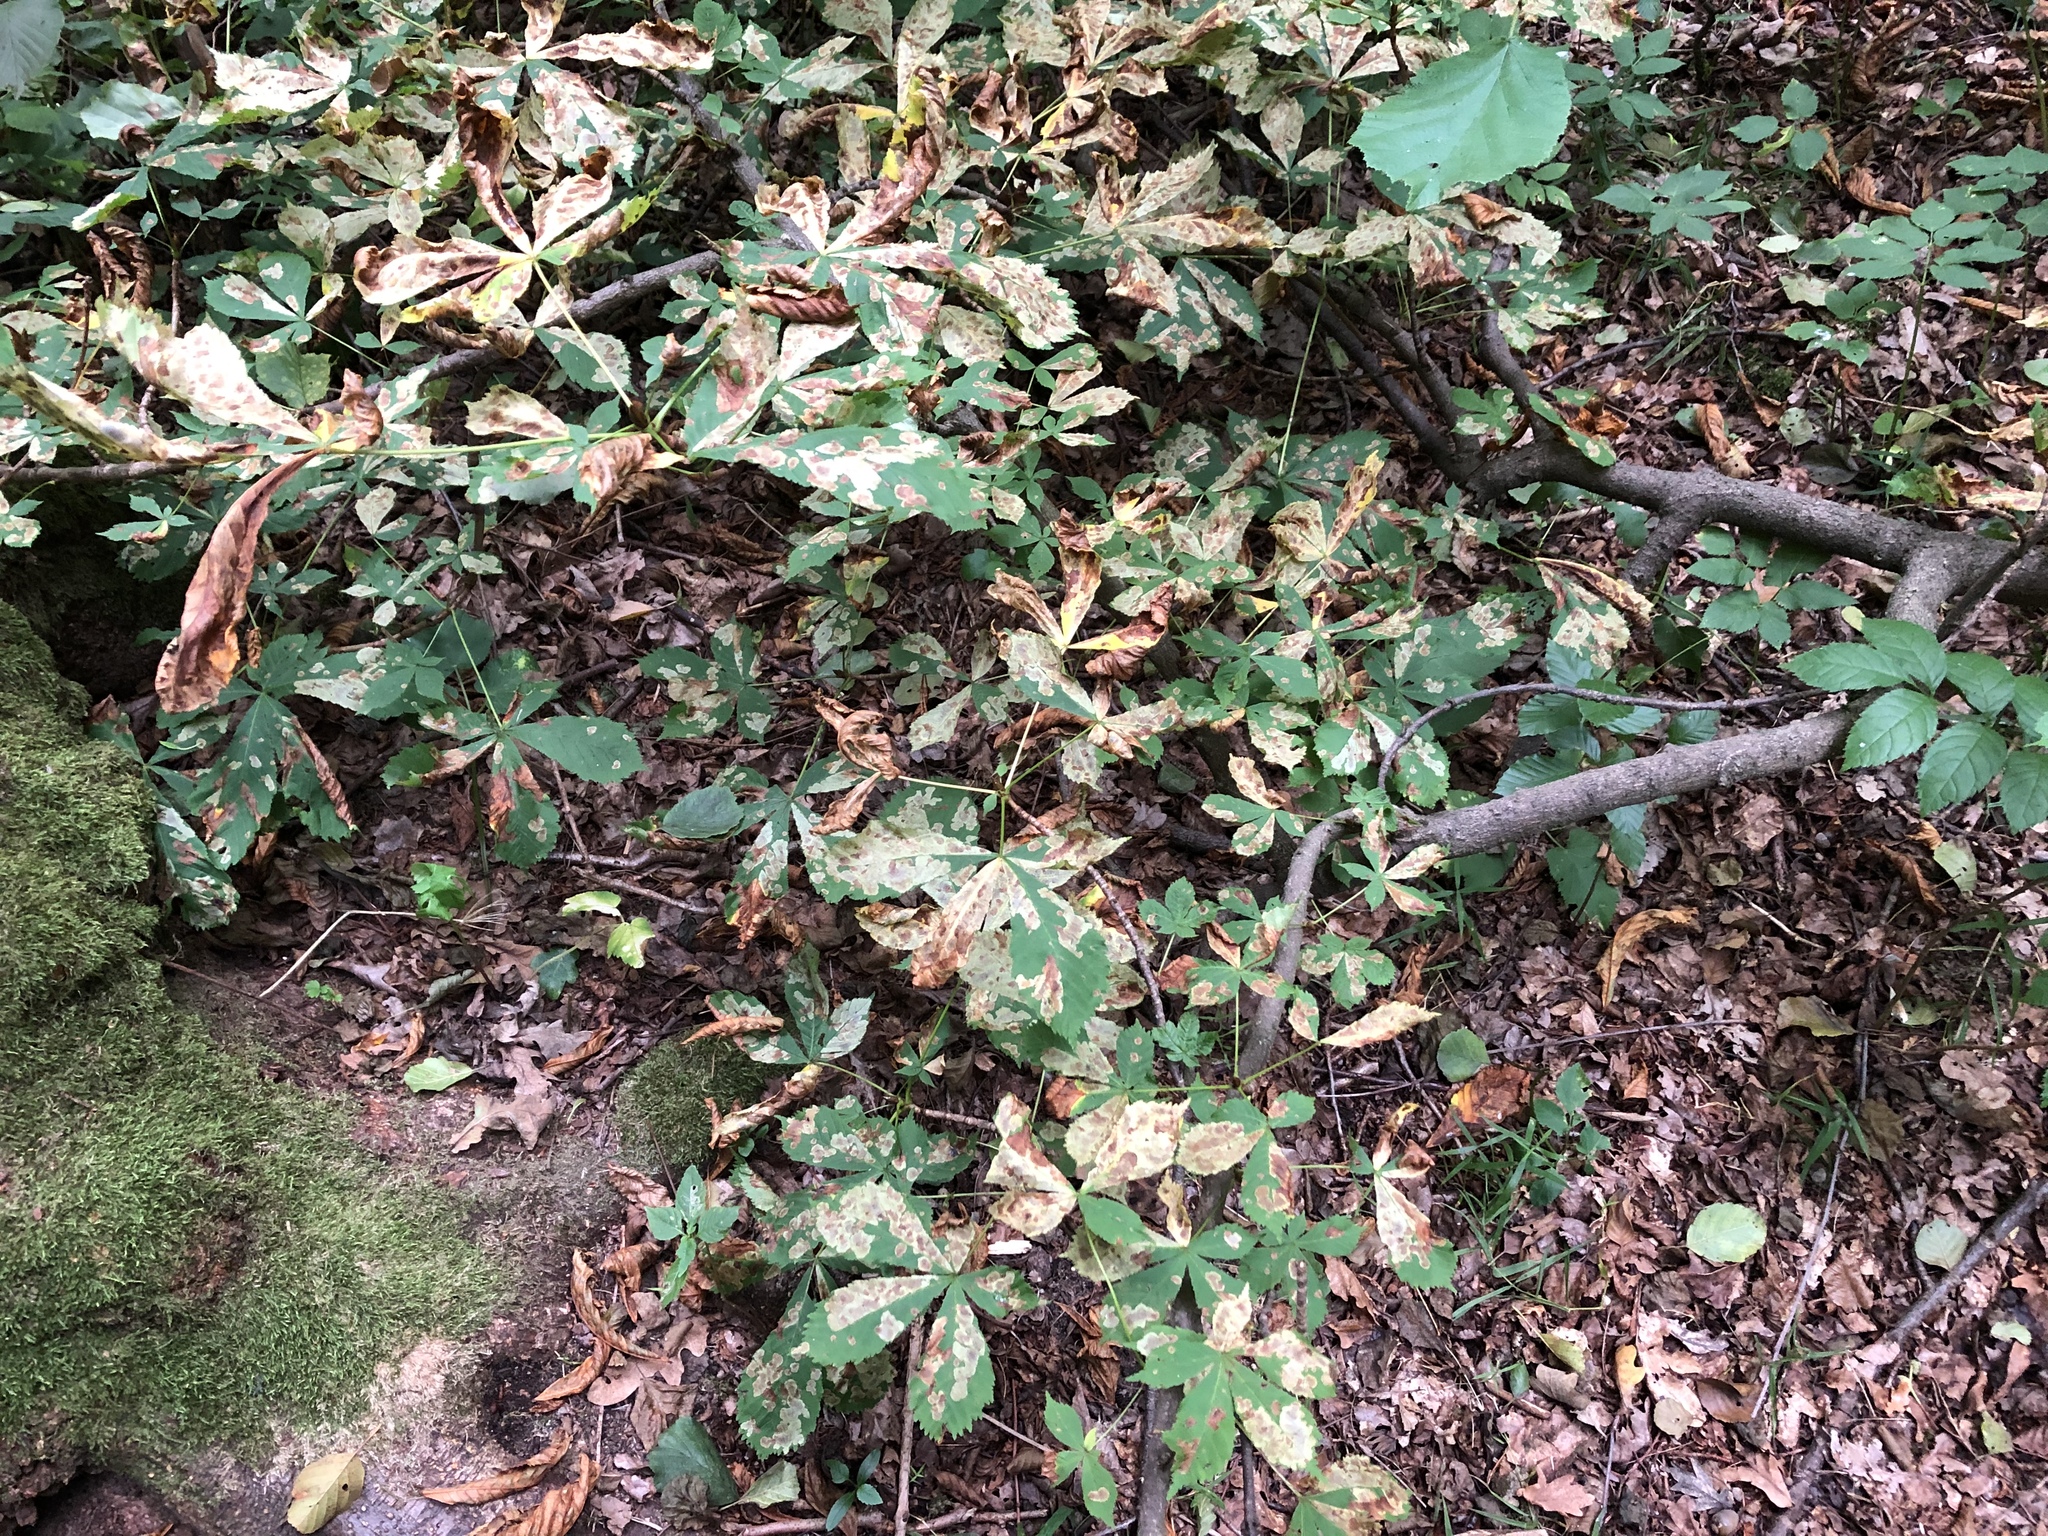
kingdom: Plantae
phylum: Tracheophyta
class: Magnoliopsida
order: Sapindales
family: Sapindaceae
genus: Aesculus
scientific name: Aesculus hippocastanum
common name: Horse-chestnut
